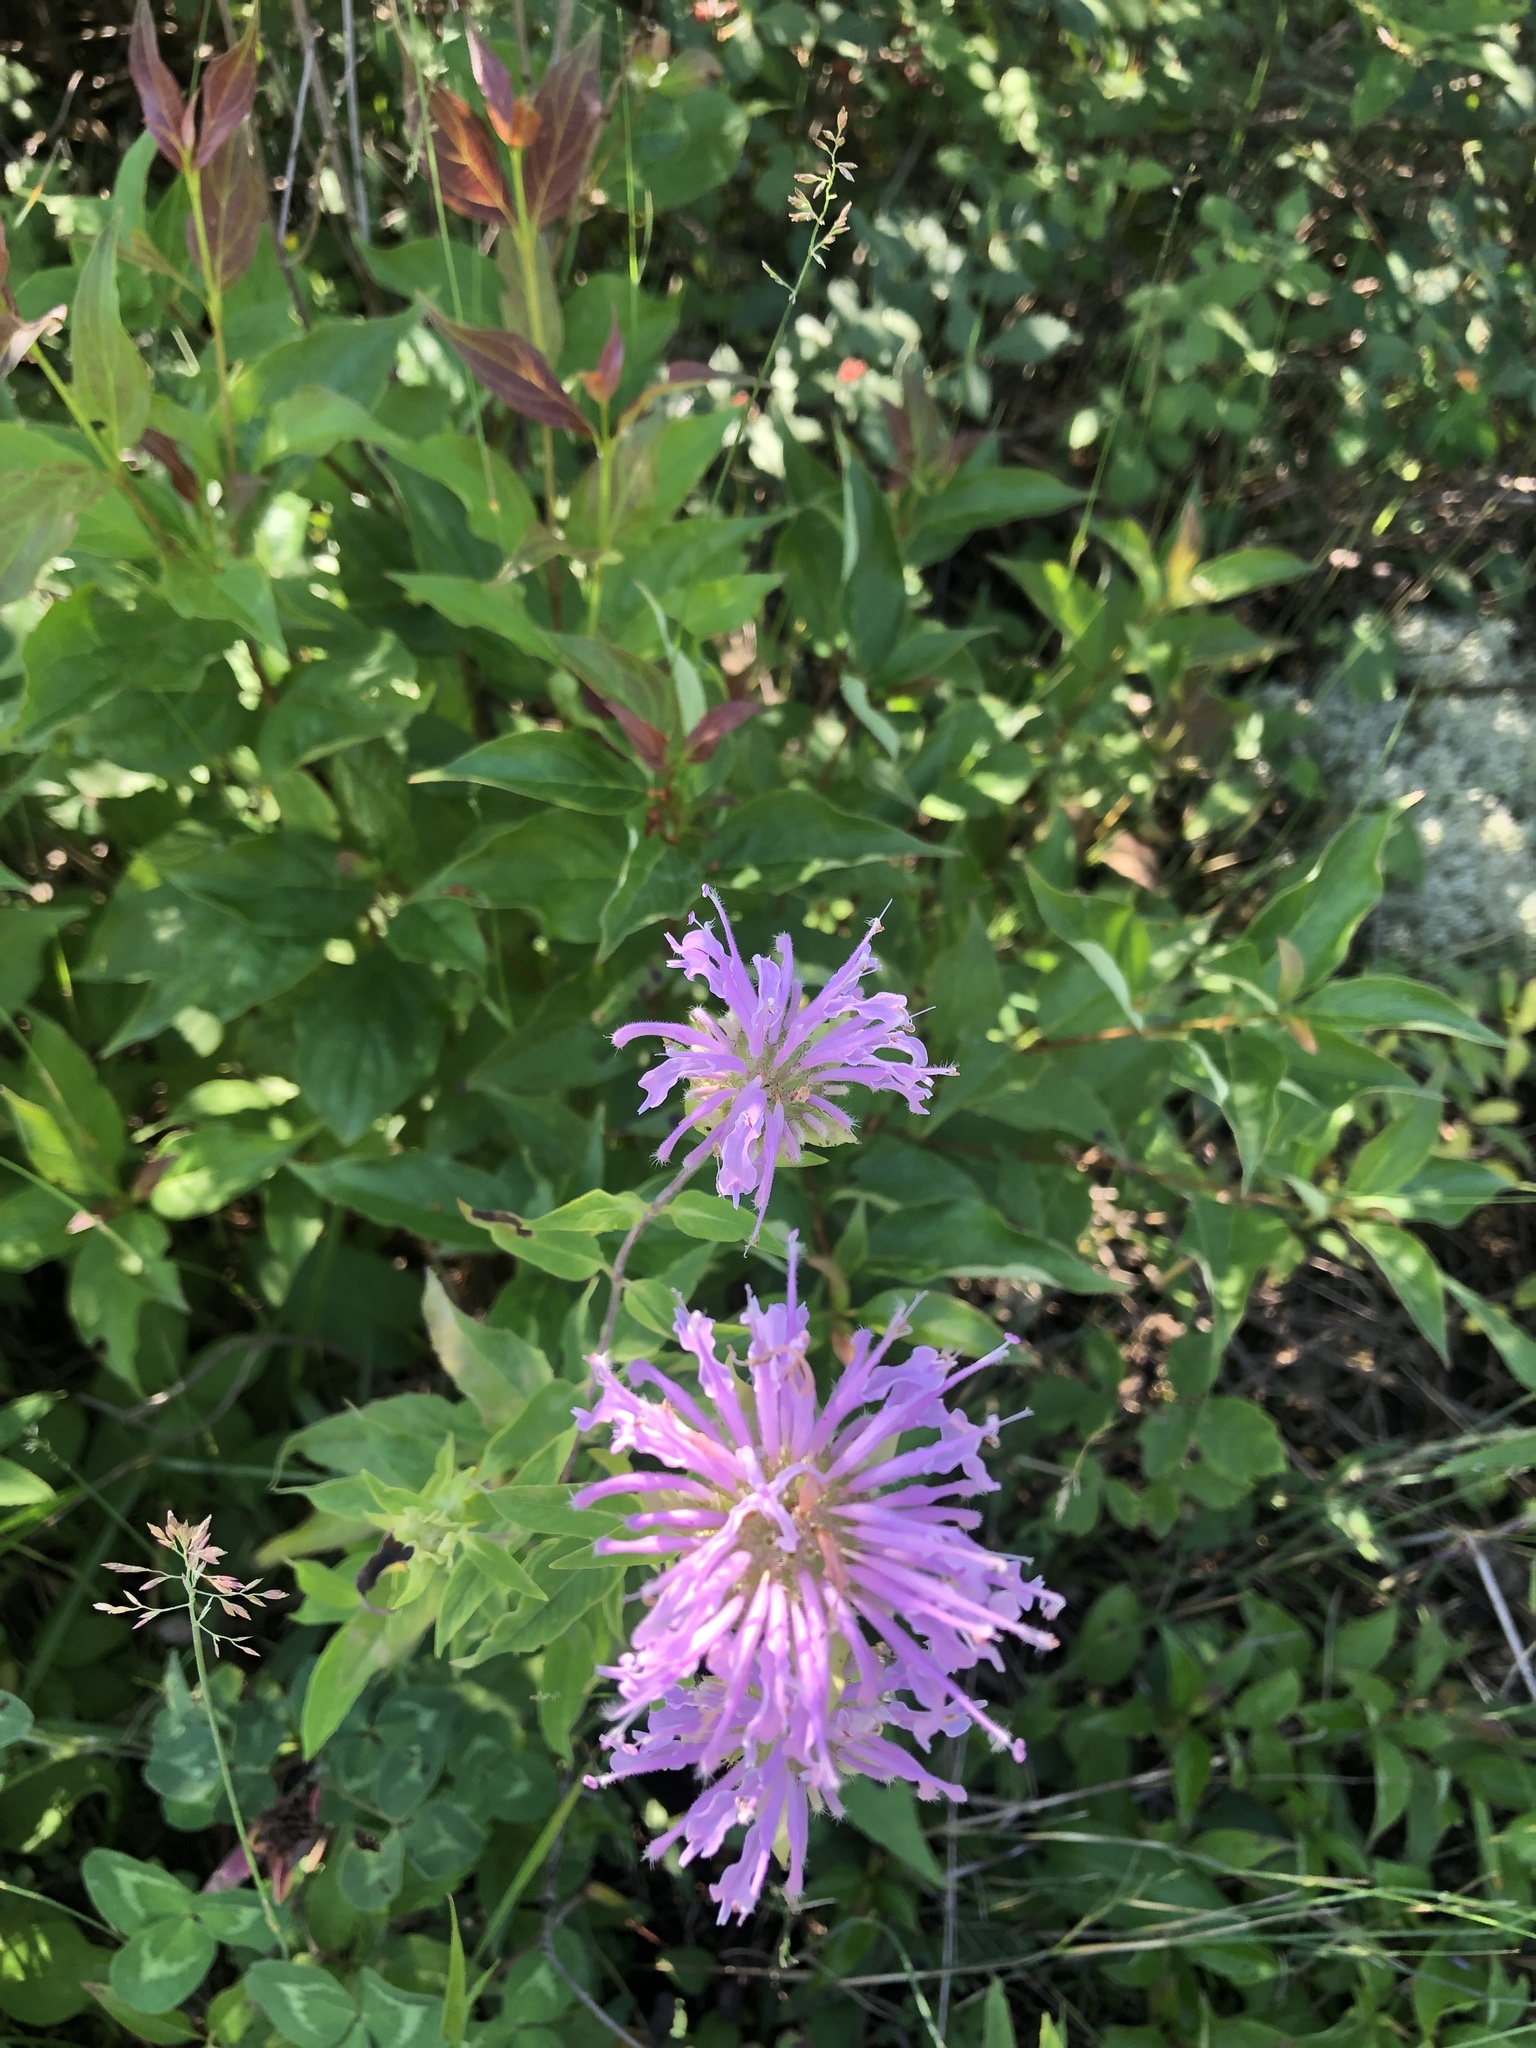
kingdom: Plantae
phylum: Tracheophyta
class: Magnoliopsida
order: Lamiales
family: Lamiaceae
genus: Monarda
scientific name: Monarda fistulosa
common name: Purple beebalm
